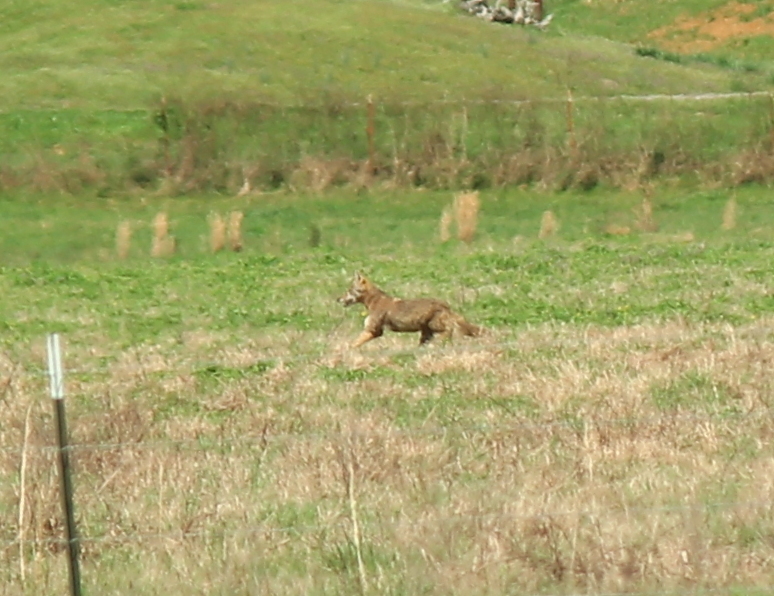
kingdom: Animalia
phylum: Chordata
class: Mammalia
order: Carnivora
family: Canidae
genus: Canis
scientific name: Canis latrans
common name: Coyote
